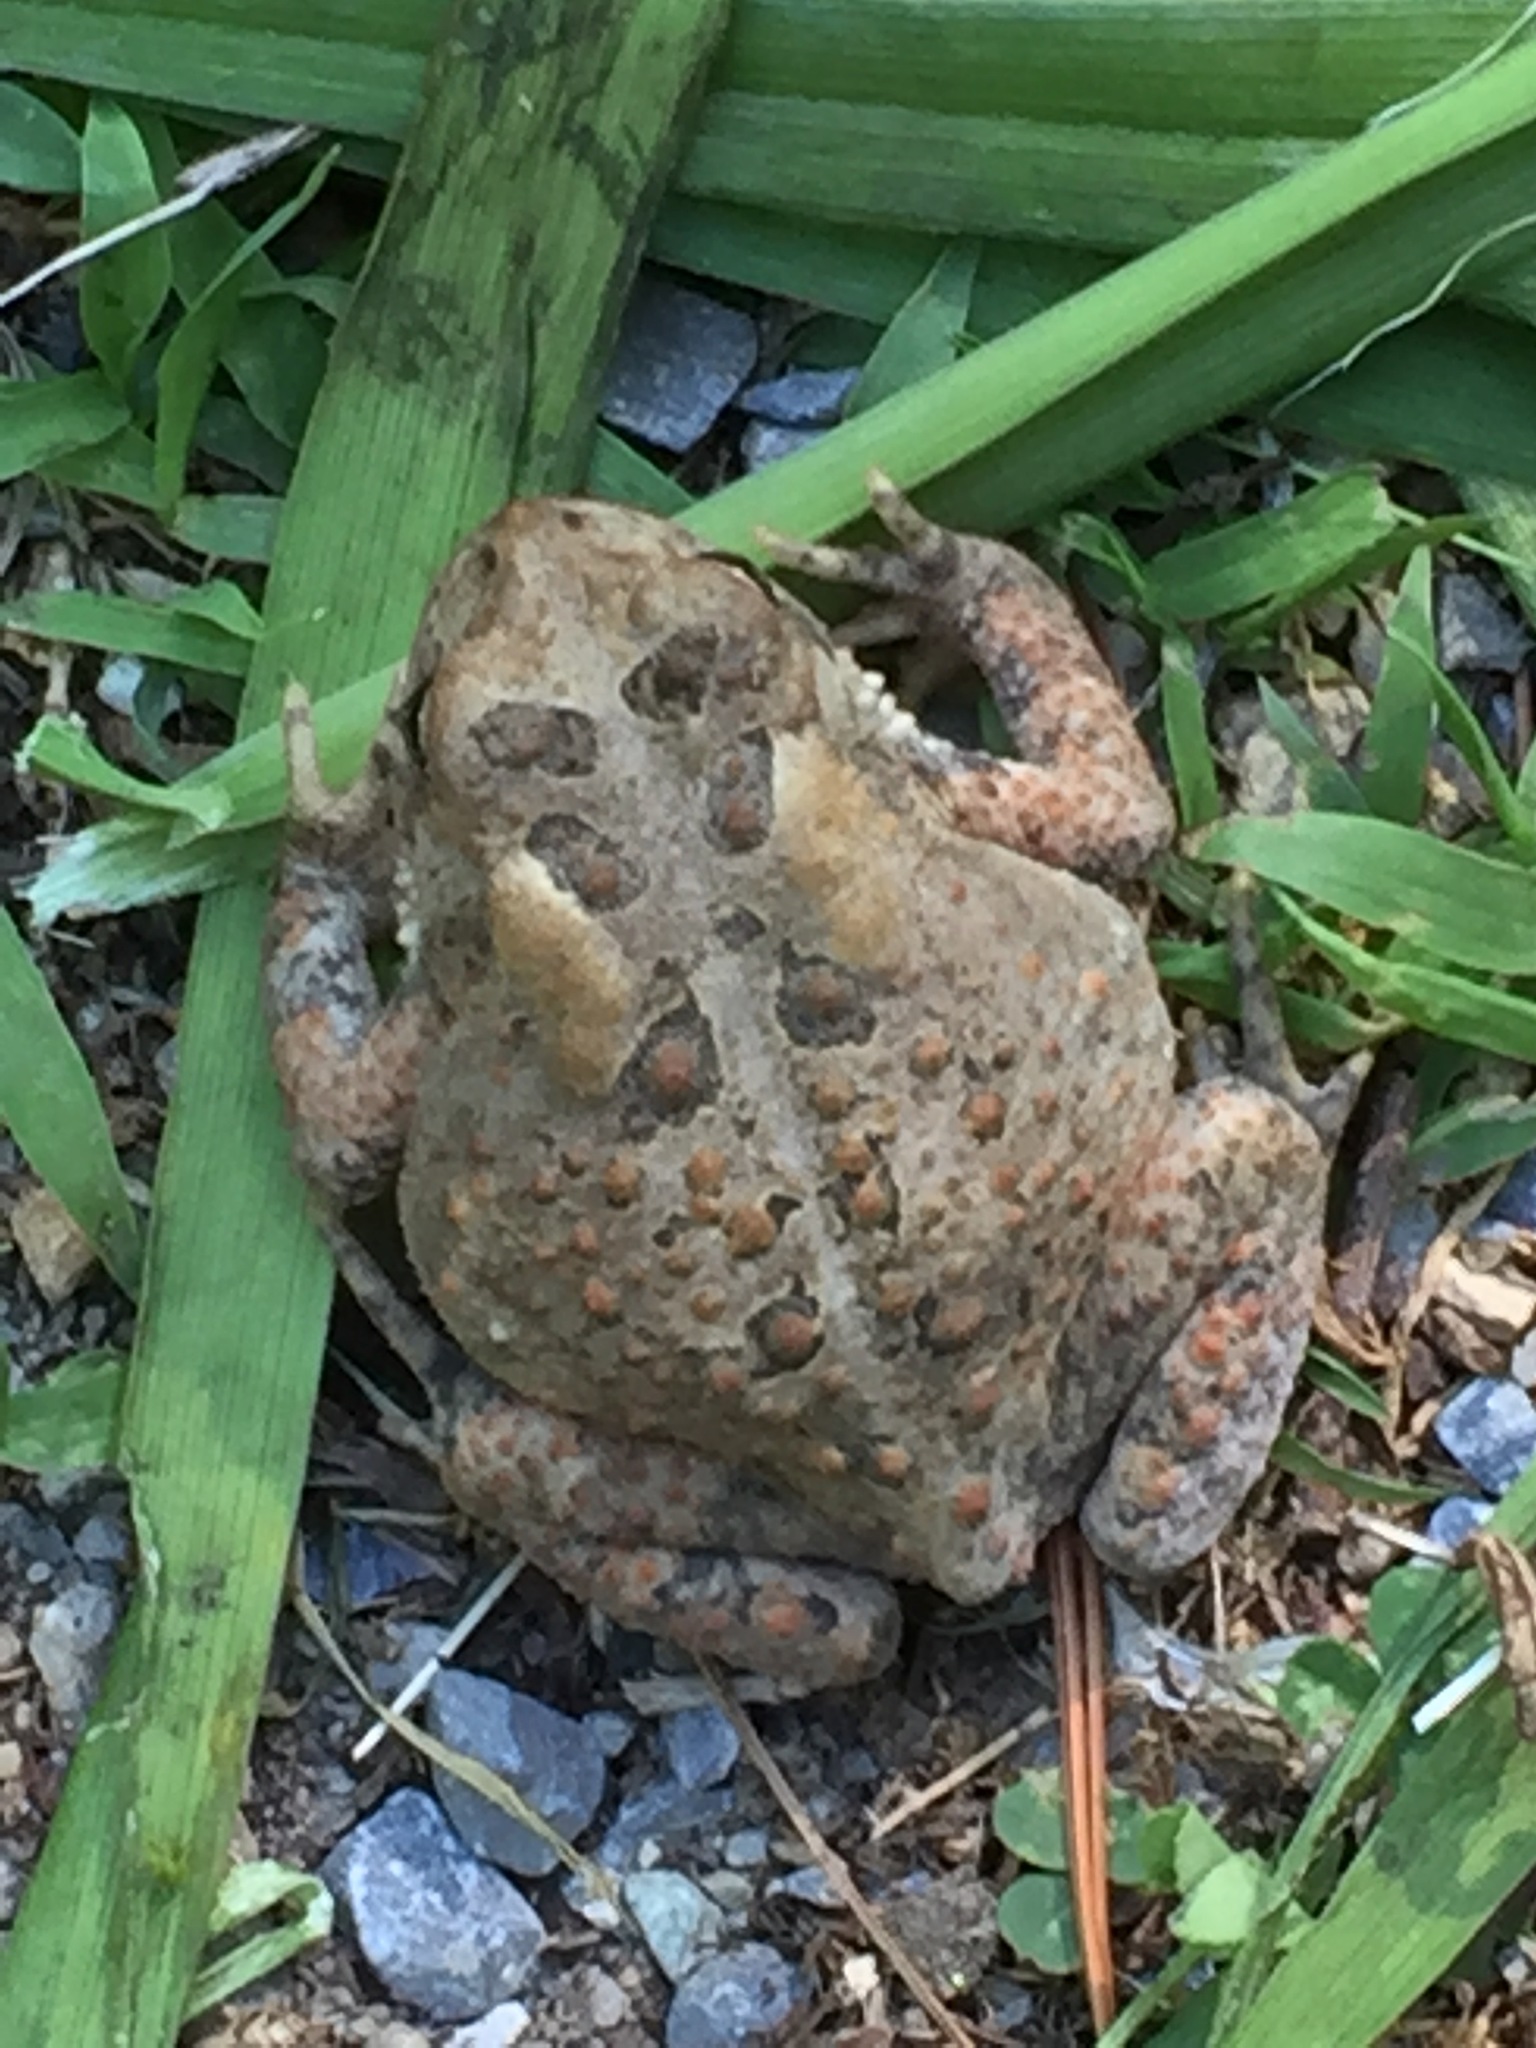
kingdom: Animalia
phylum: Chordata
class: Amphibia
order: Anura
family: Bufonidae
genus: Anaxyrus
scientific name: Anaxyrus americanus
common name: American toad
